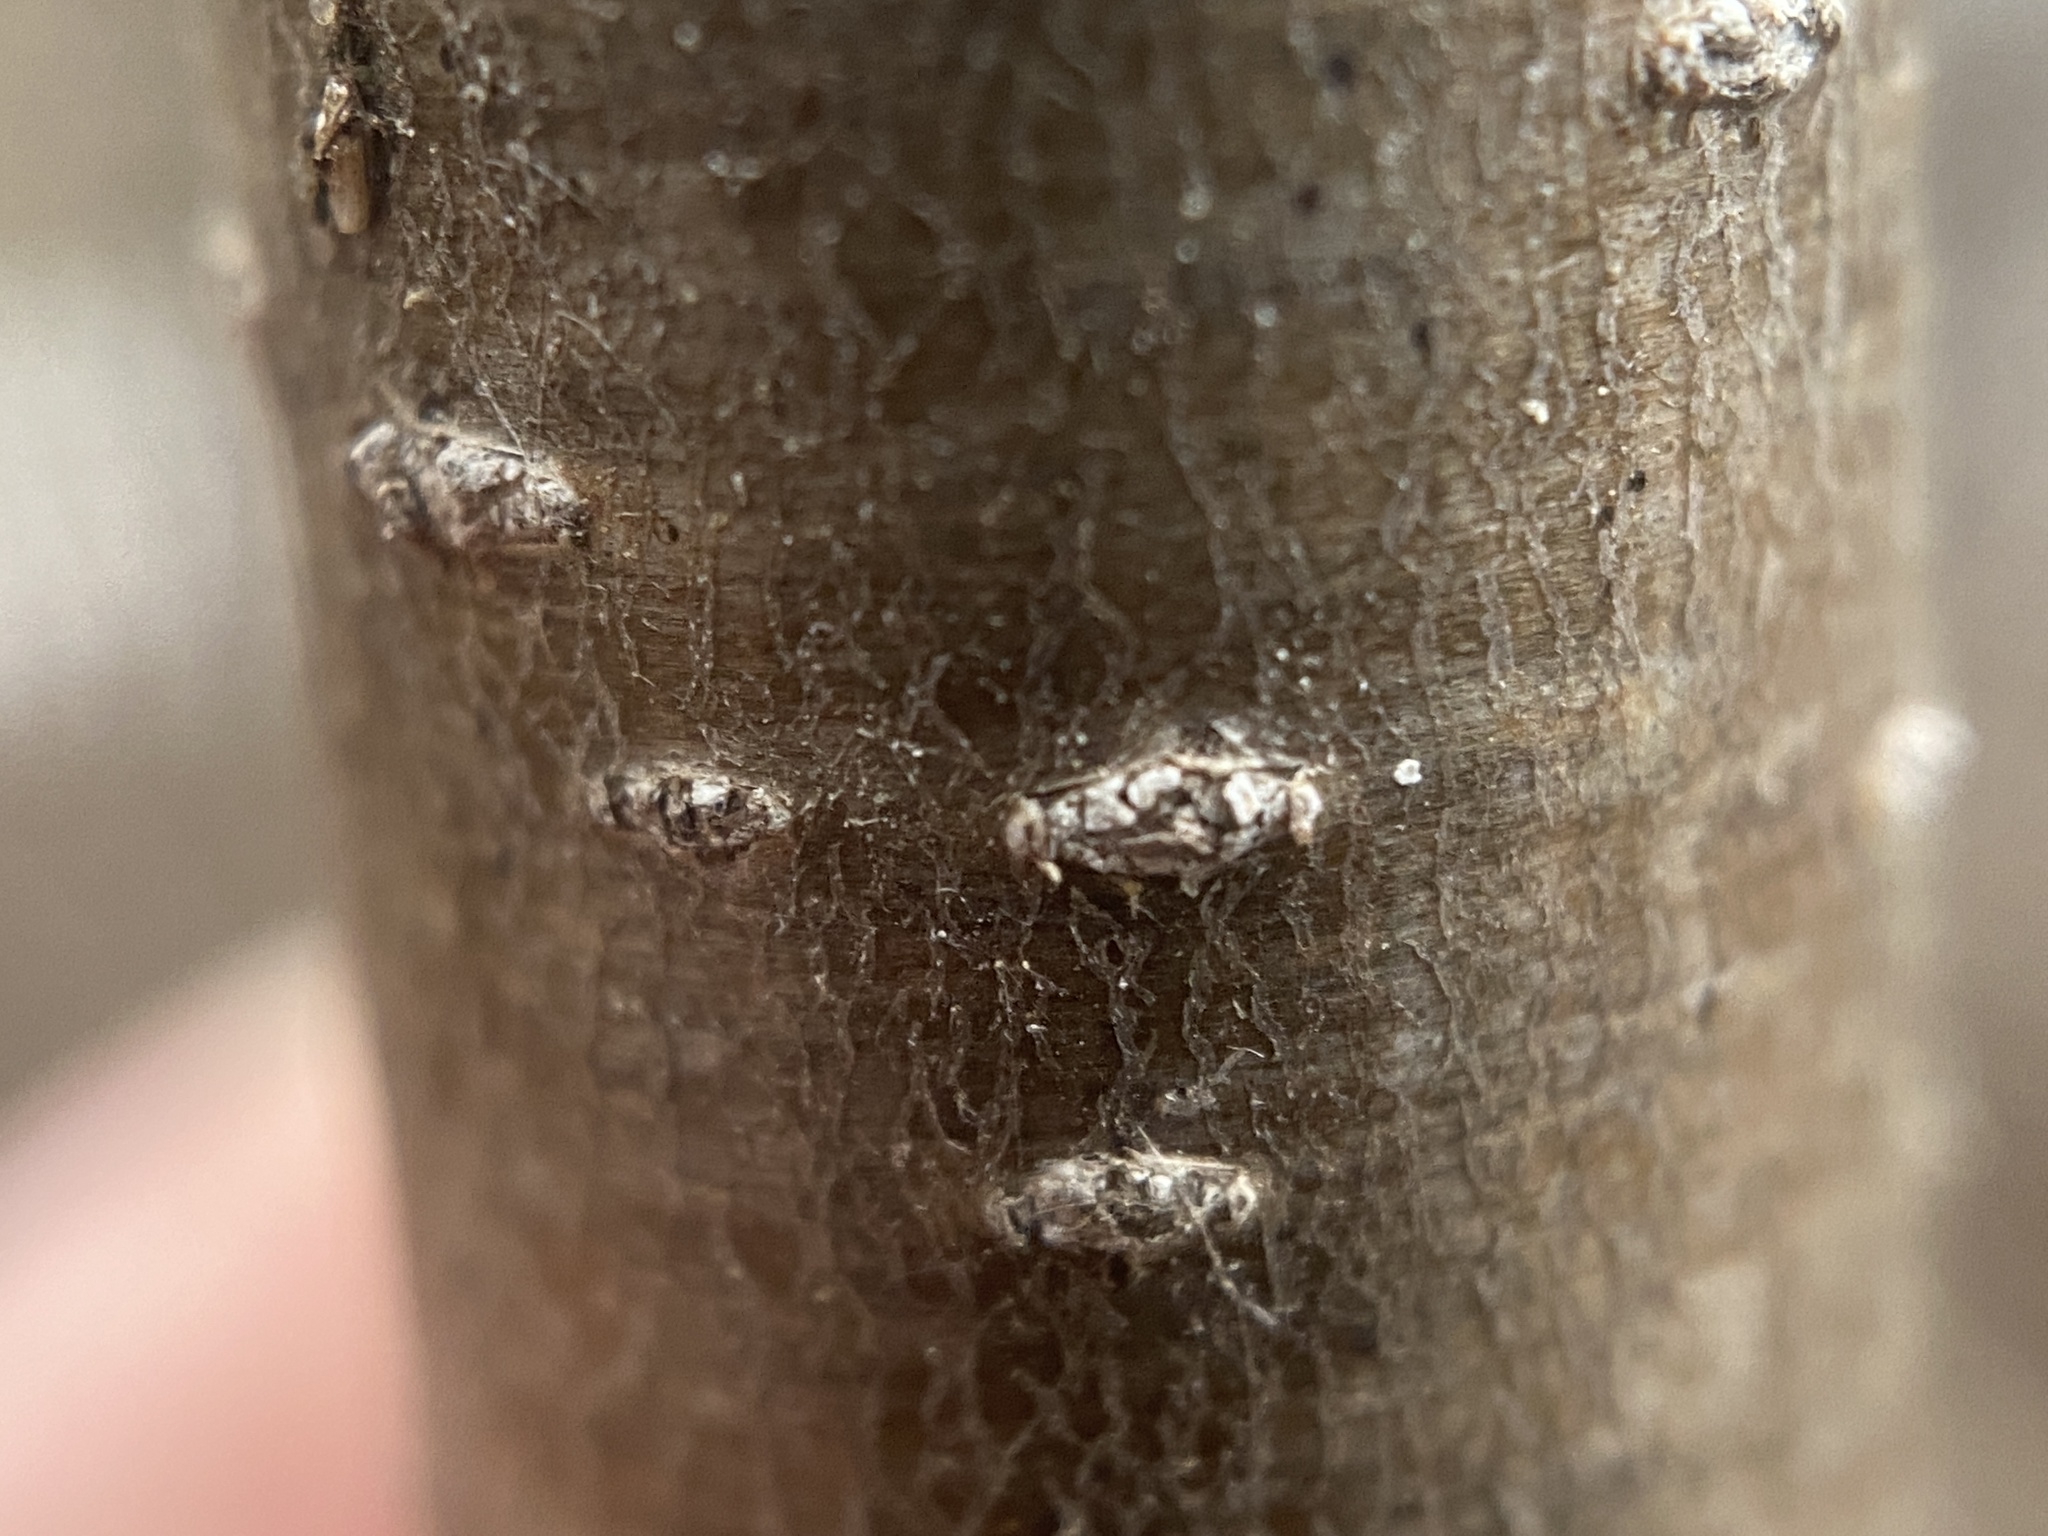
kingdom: Plantae
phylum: Tracheophyta
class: Magnoliopsida
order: Rosales
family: Rhamnaceae
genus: Rhamnus
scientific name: Rhamnus cathartica
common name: Common buckthorn
